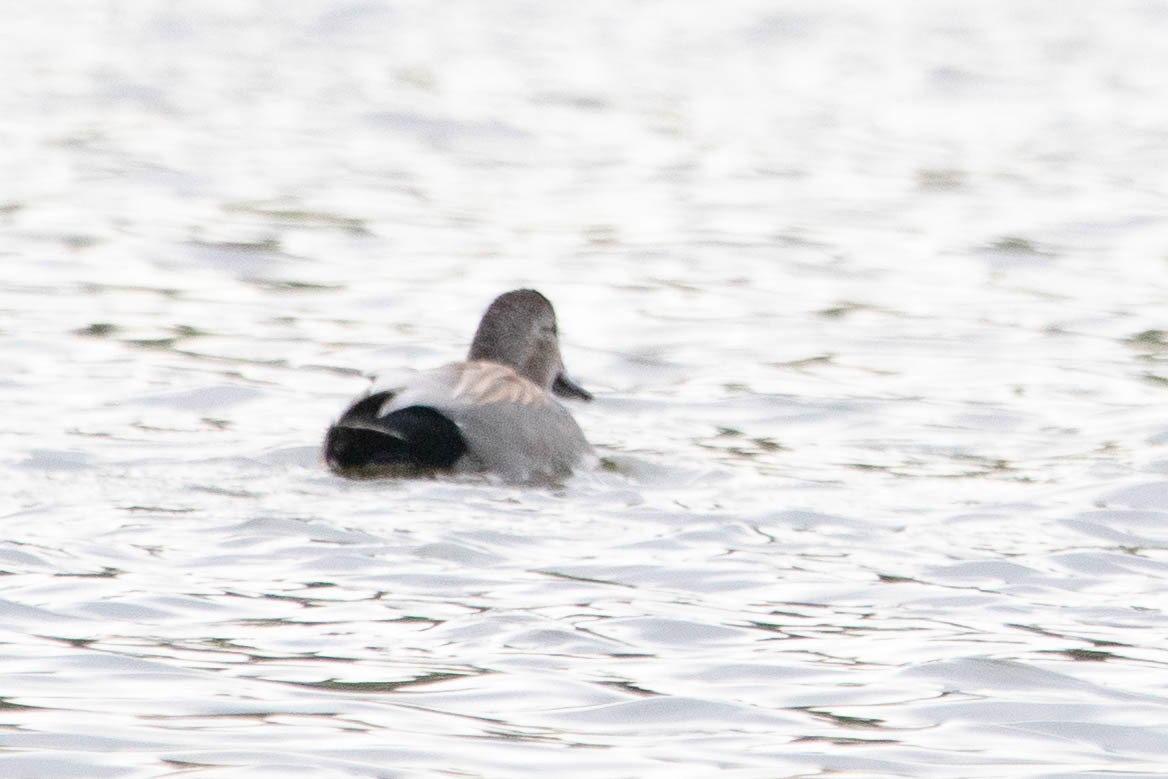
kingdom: Animalia
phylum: Chordata
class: Aves
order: Anseriformes
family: Anatidae
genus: Mareca
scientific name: Mareca strepera
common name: Gadwall
